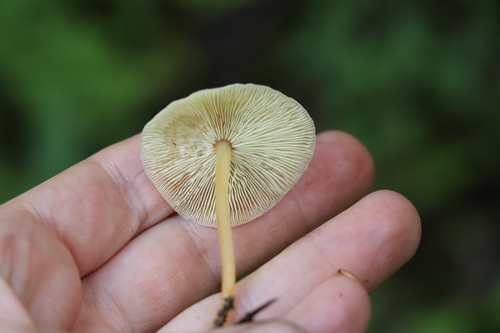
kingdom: Fungi
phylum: Basidiomycota
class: Agaricomycetes
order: Agaricales
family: Omphalotaceae
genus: Gymnopus
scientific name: Gymnopus aquosus
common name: Watery toughshank
